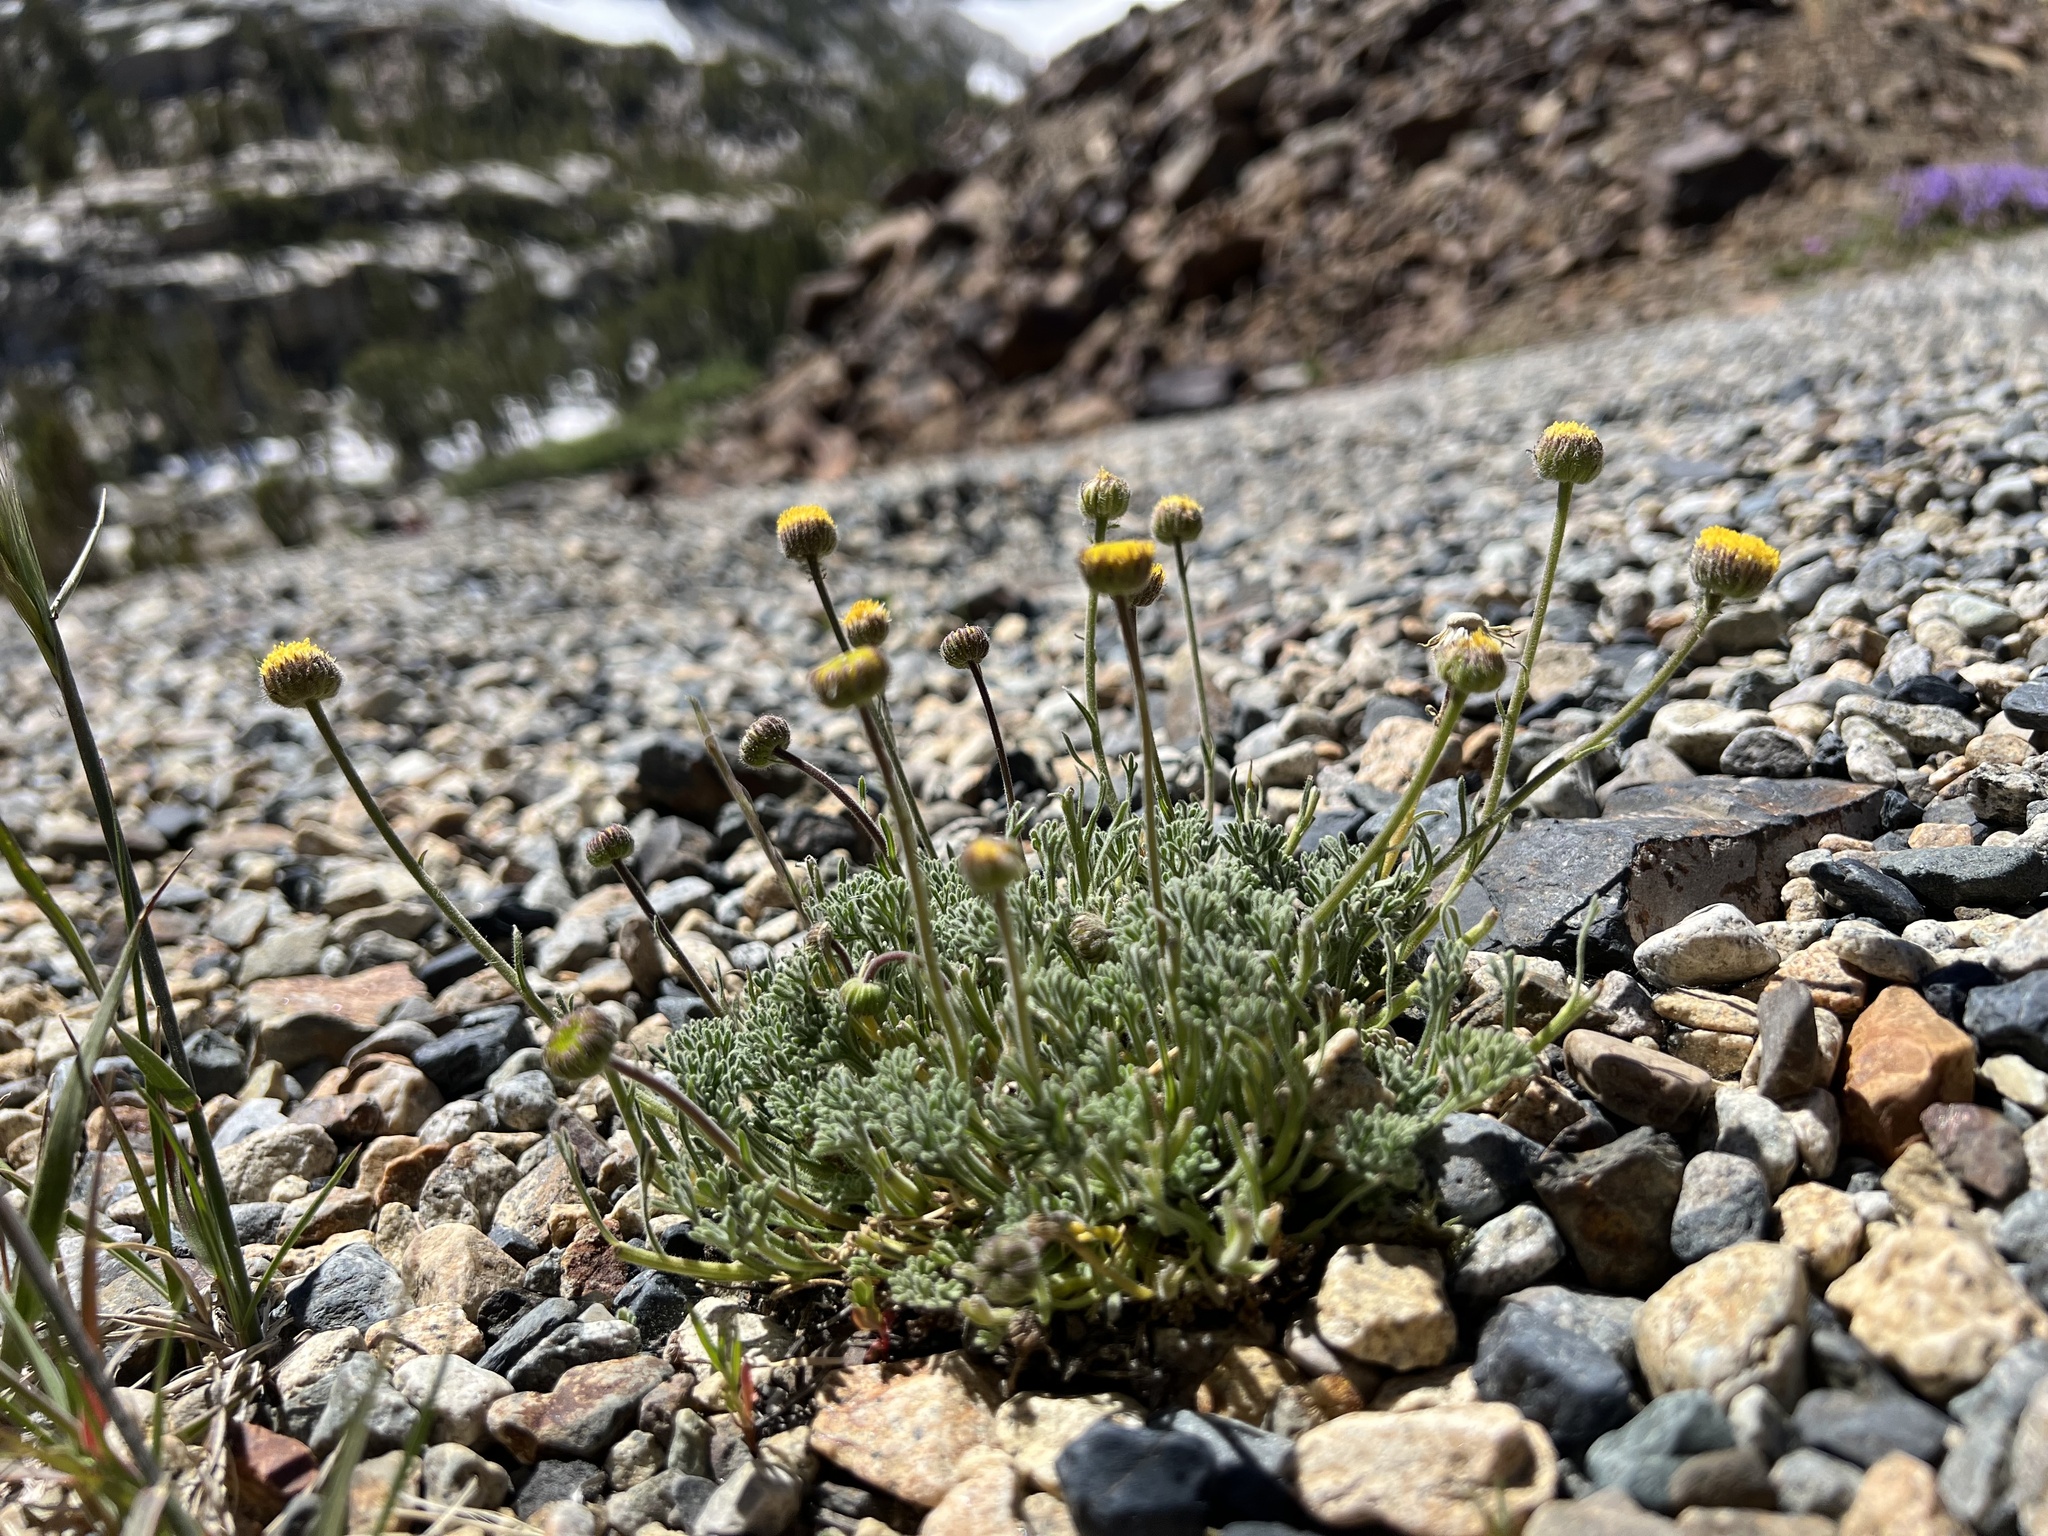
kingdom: Plantae
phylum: Tracheophyta
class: Magnoliopsida
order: Asterales
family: Asteraceae
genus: Erigeron
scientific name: Erigeron compositus
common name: Dwarf mountain fleabane
